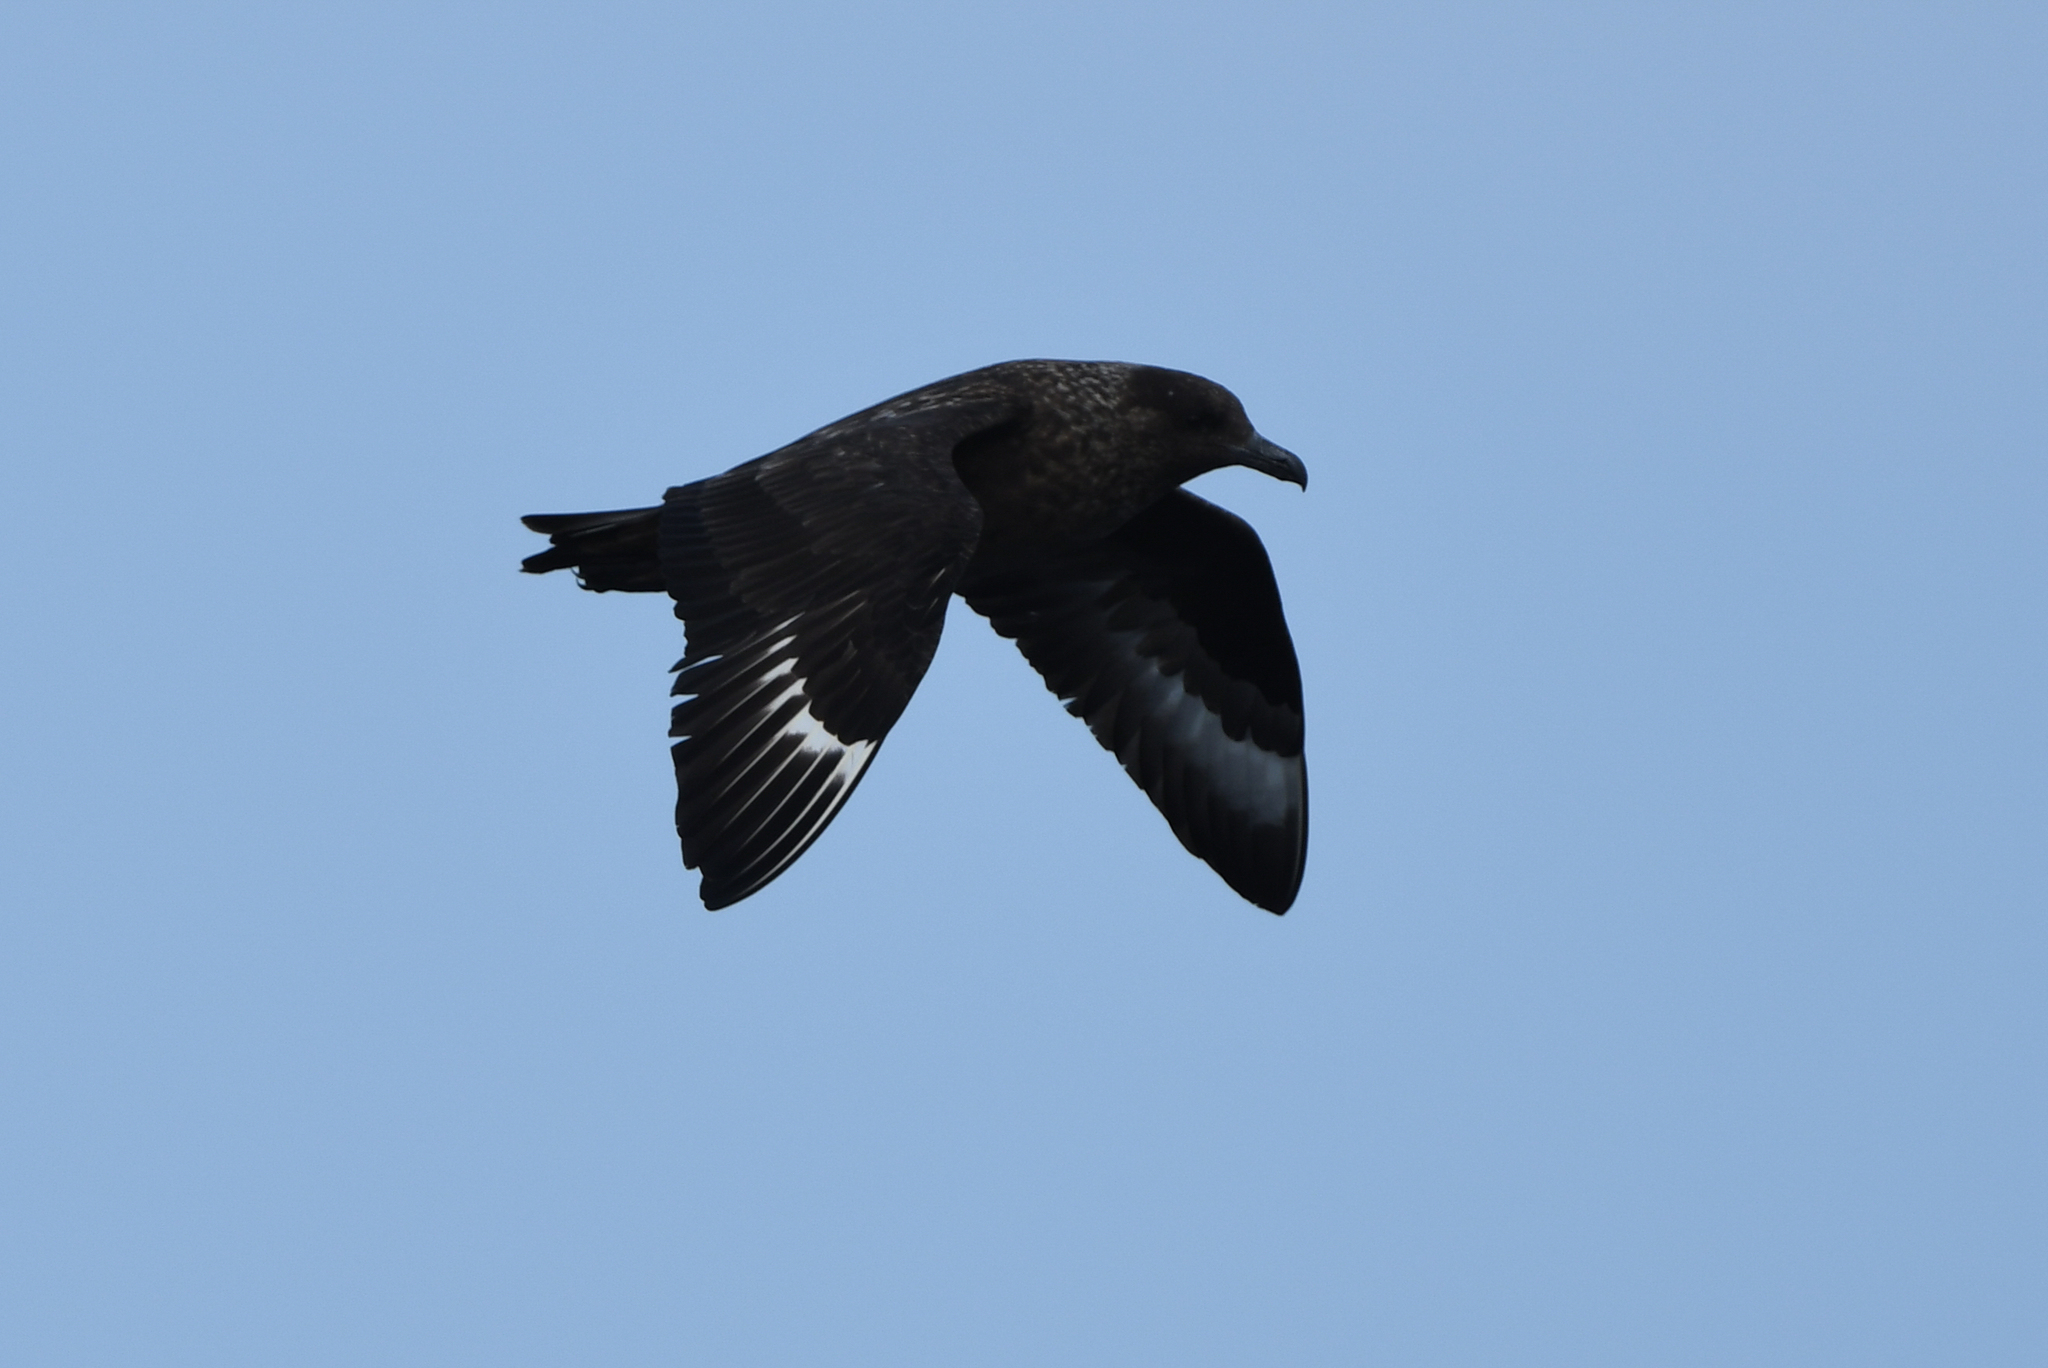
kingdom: Animalia
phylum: Chordata
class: Aves
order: Charadriiformes
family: Stercorariidae
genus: Stercorarius
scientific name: Stercorarius skua
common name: Great skua
